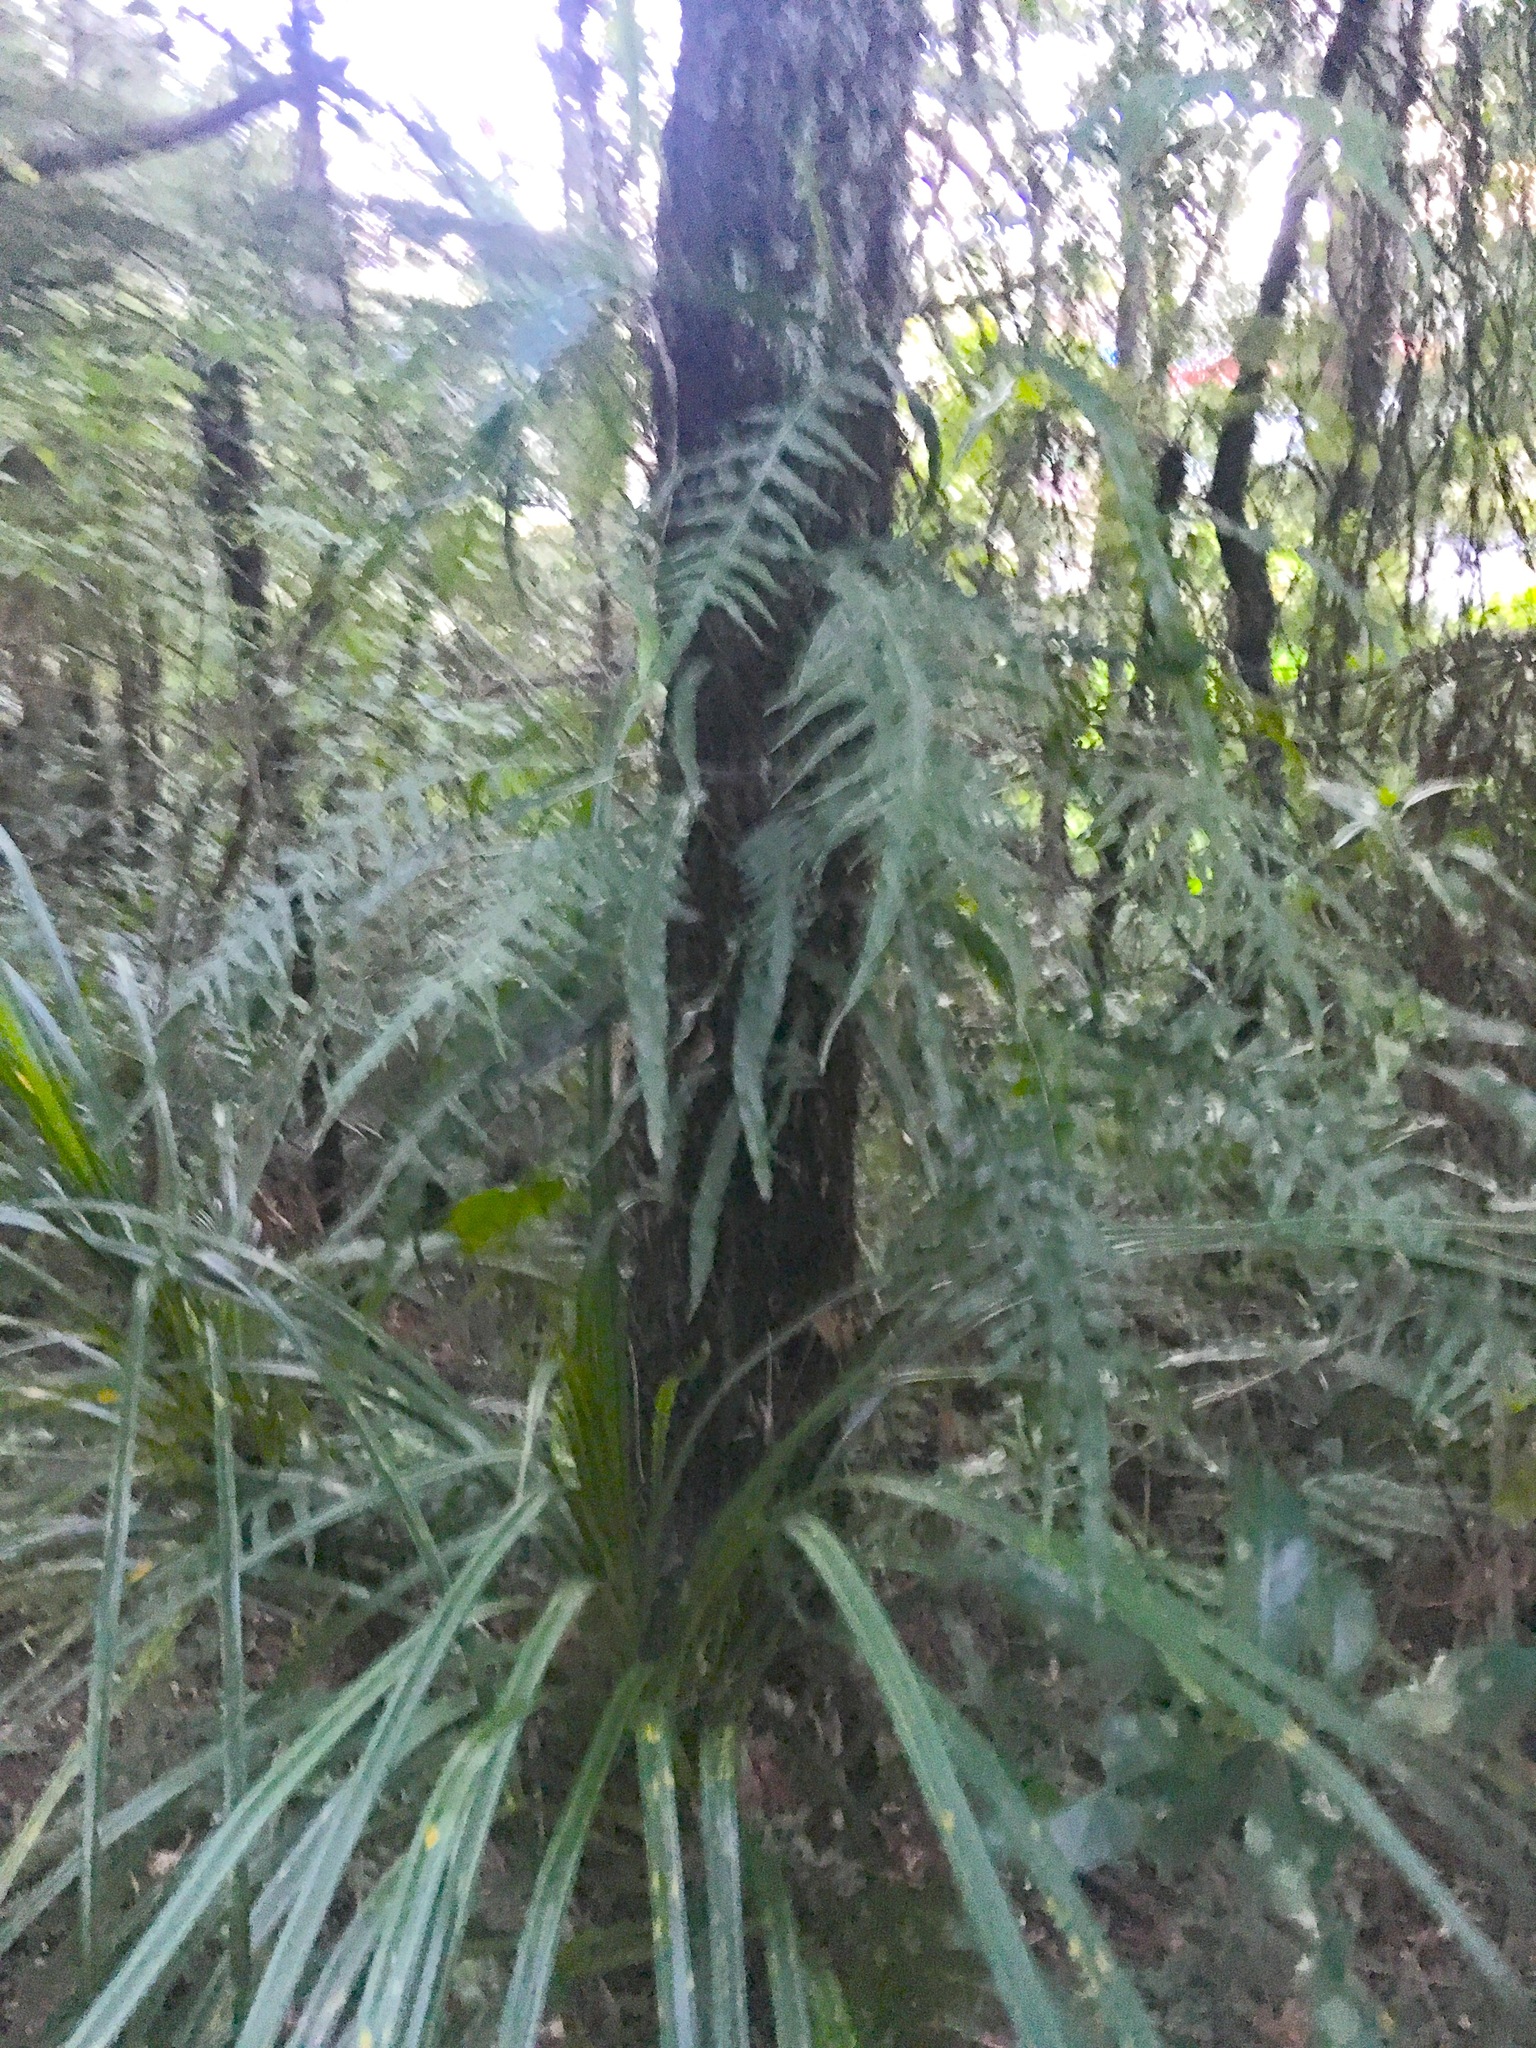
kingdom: Plantae
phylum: Tracheophyta
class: Polypodiopsida
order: Polypodiales
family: Blechnaceae
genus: Icarus
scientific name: Icarus filiformis
